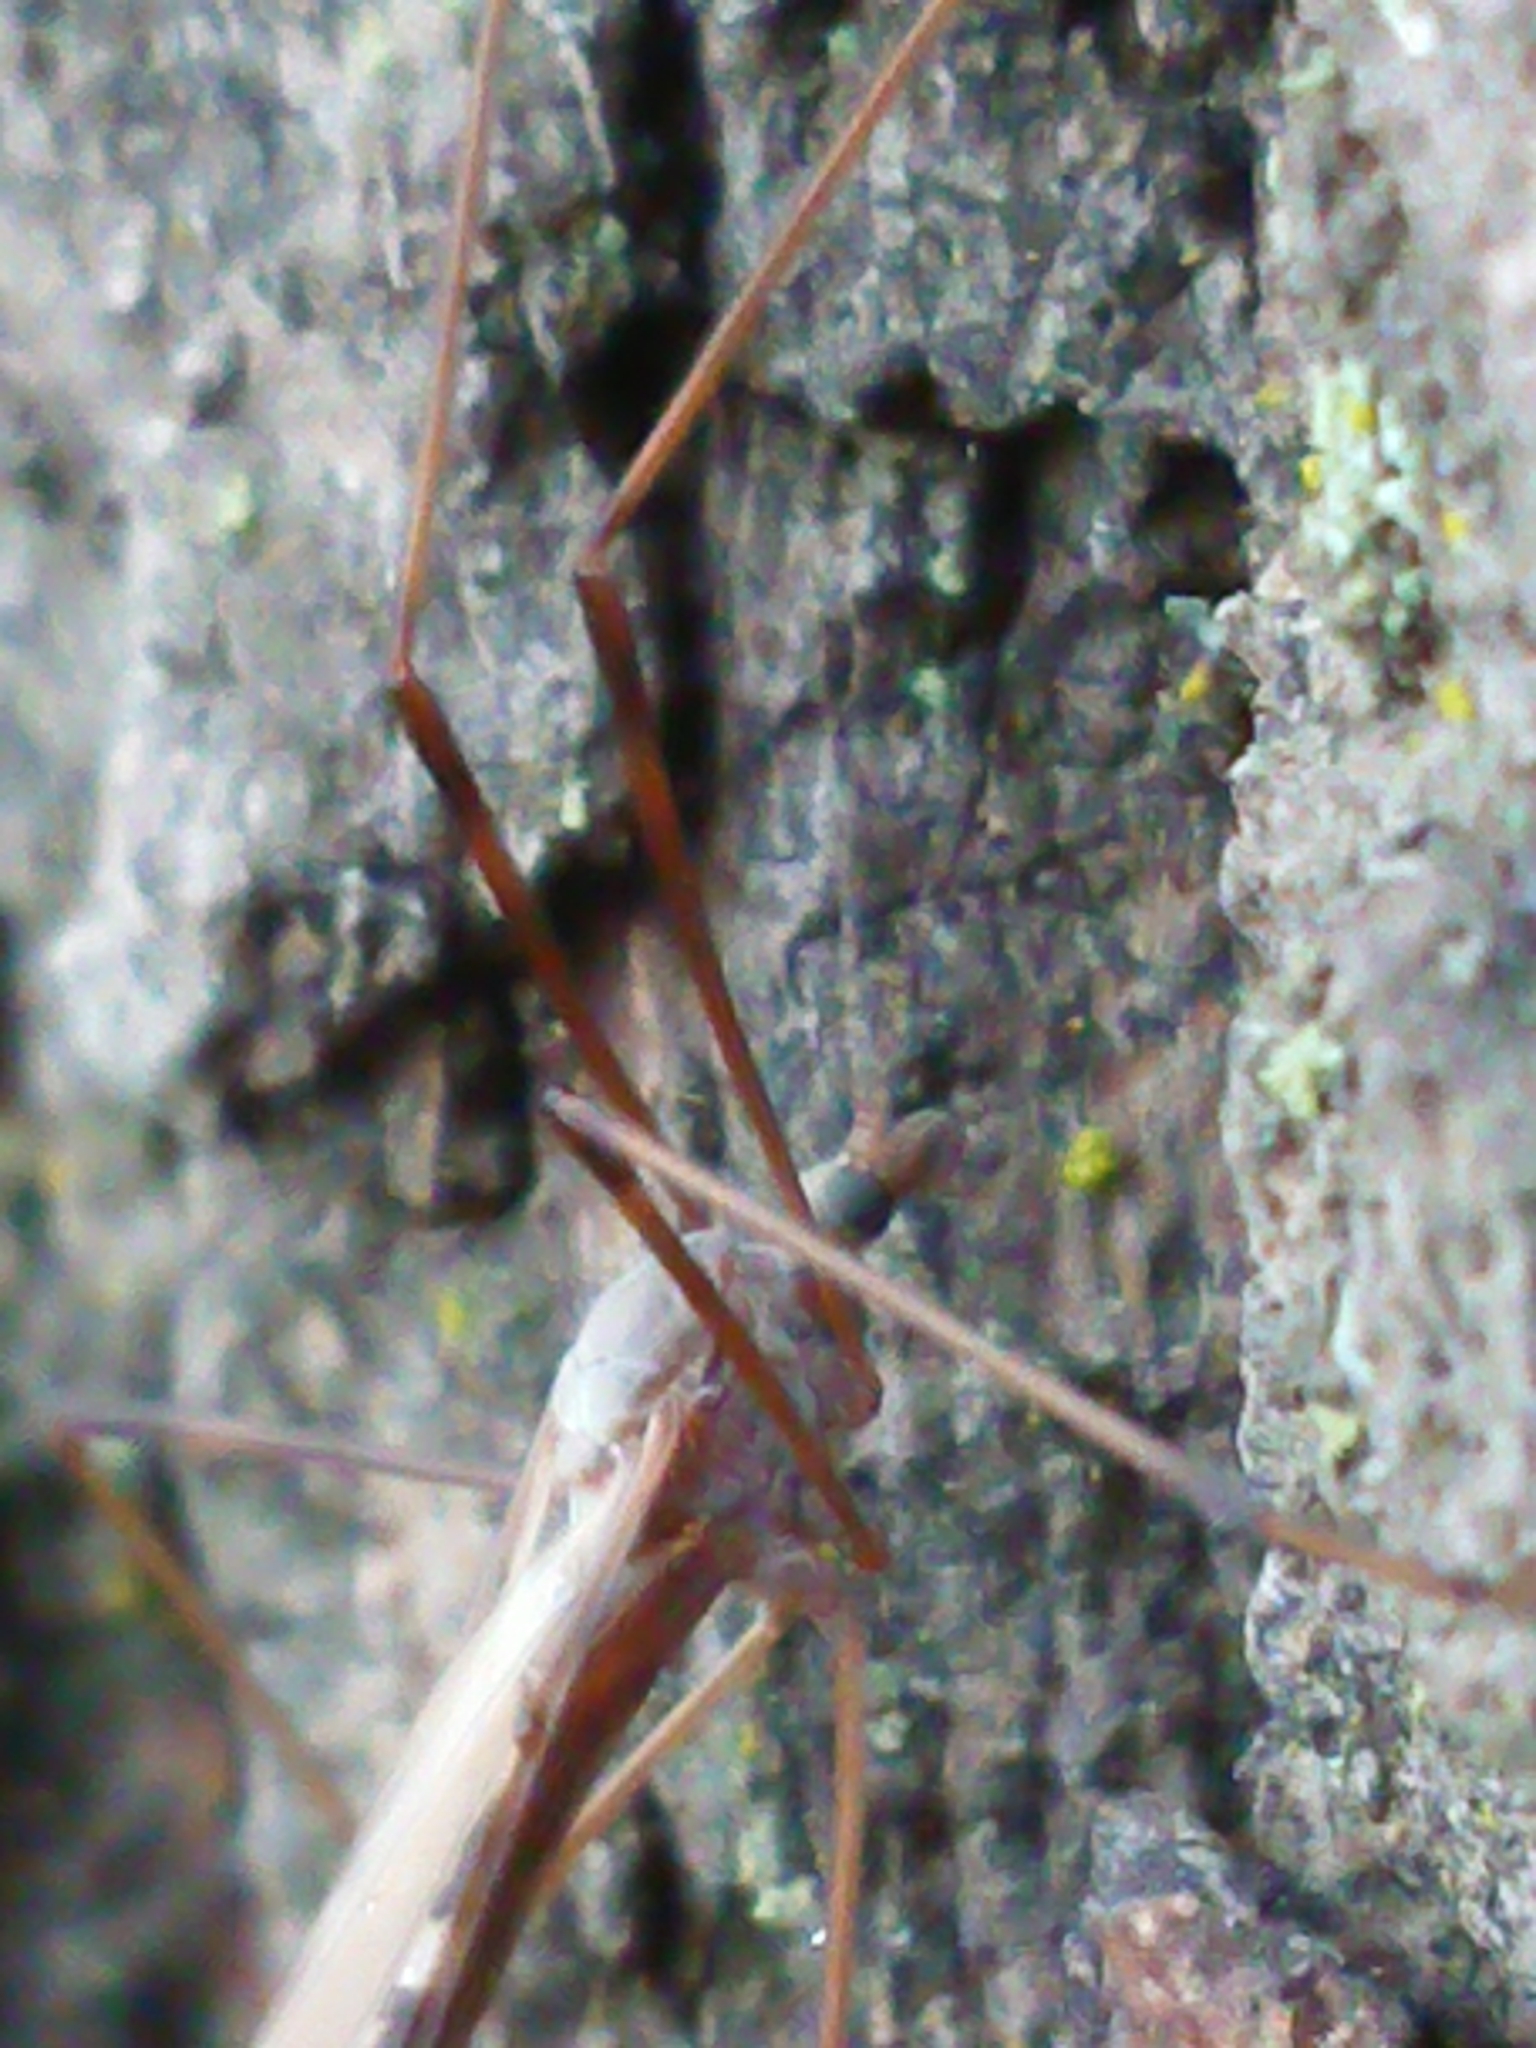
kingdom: Animalia
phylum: Arthropoda
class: Insecta
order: Diptera
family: Limoniidae
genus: Paralimnophila
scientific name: Paralimnophila skusei
